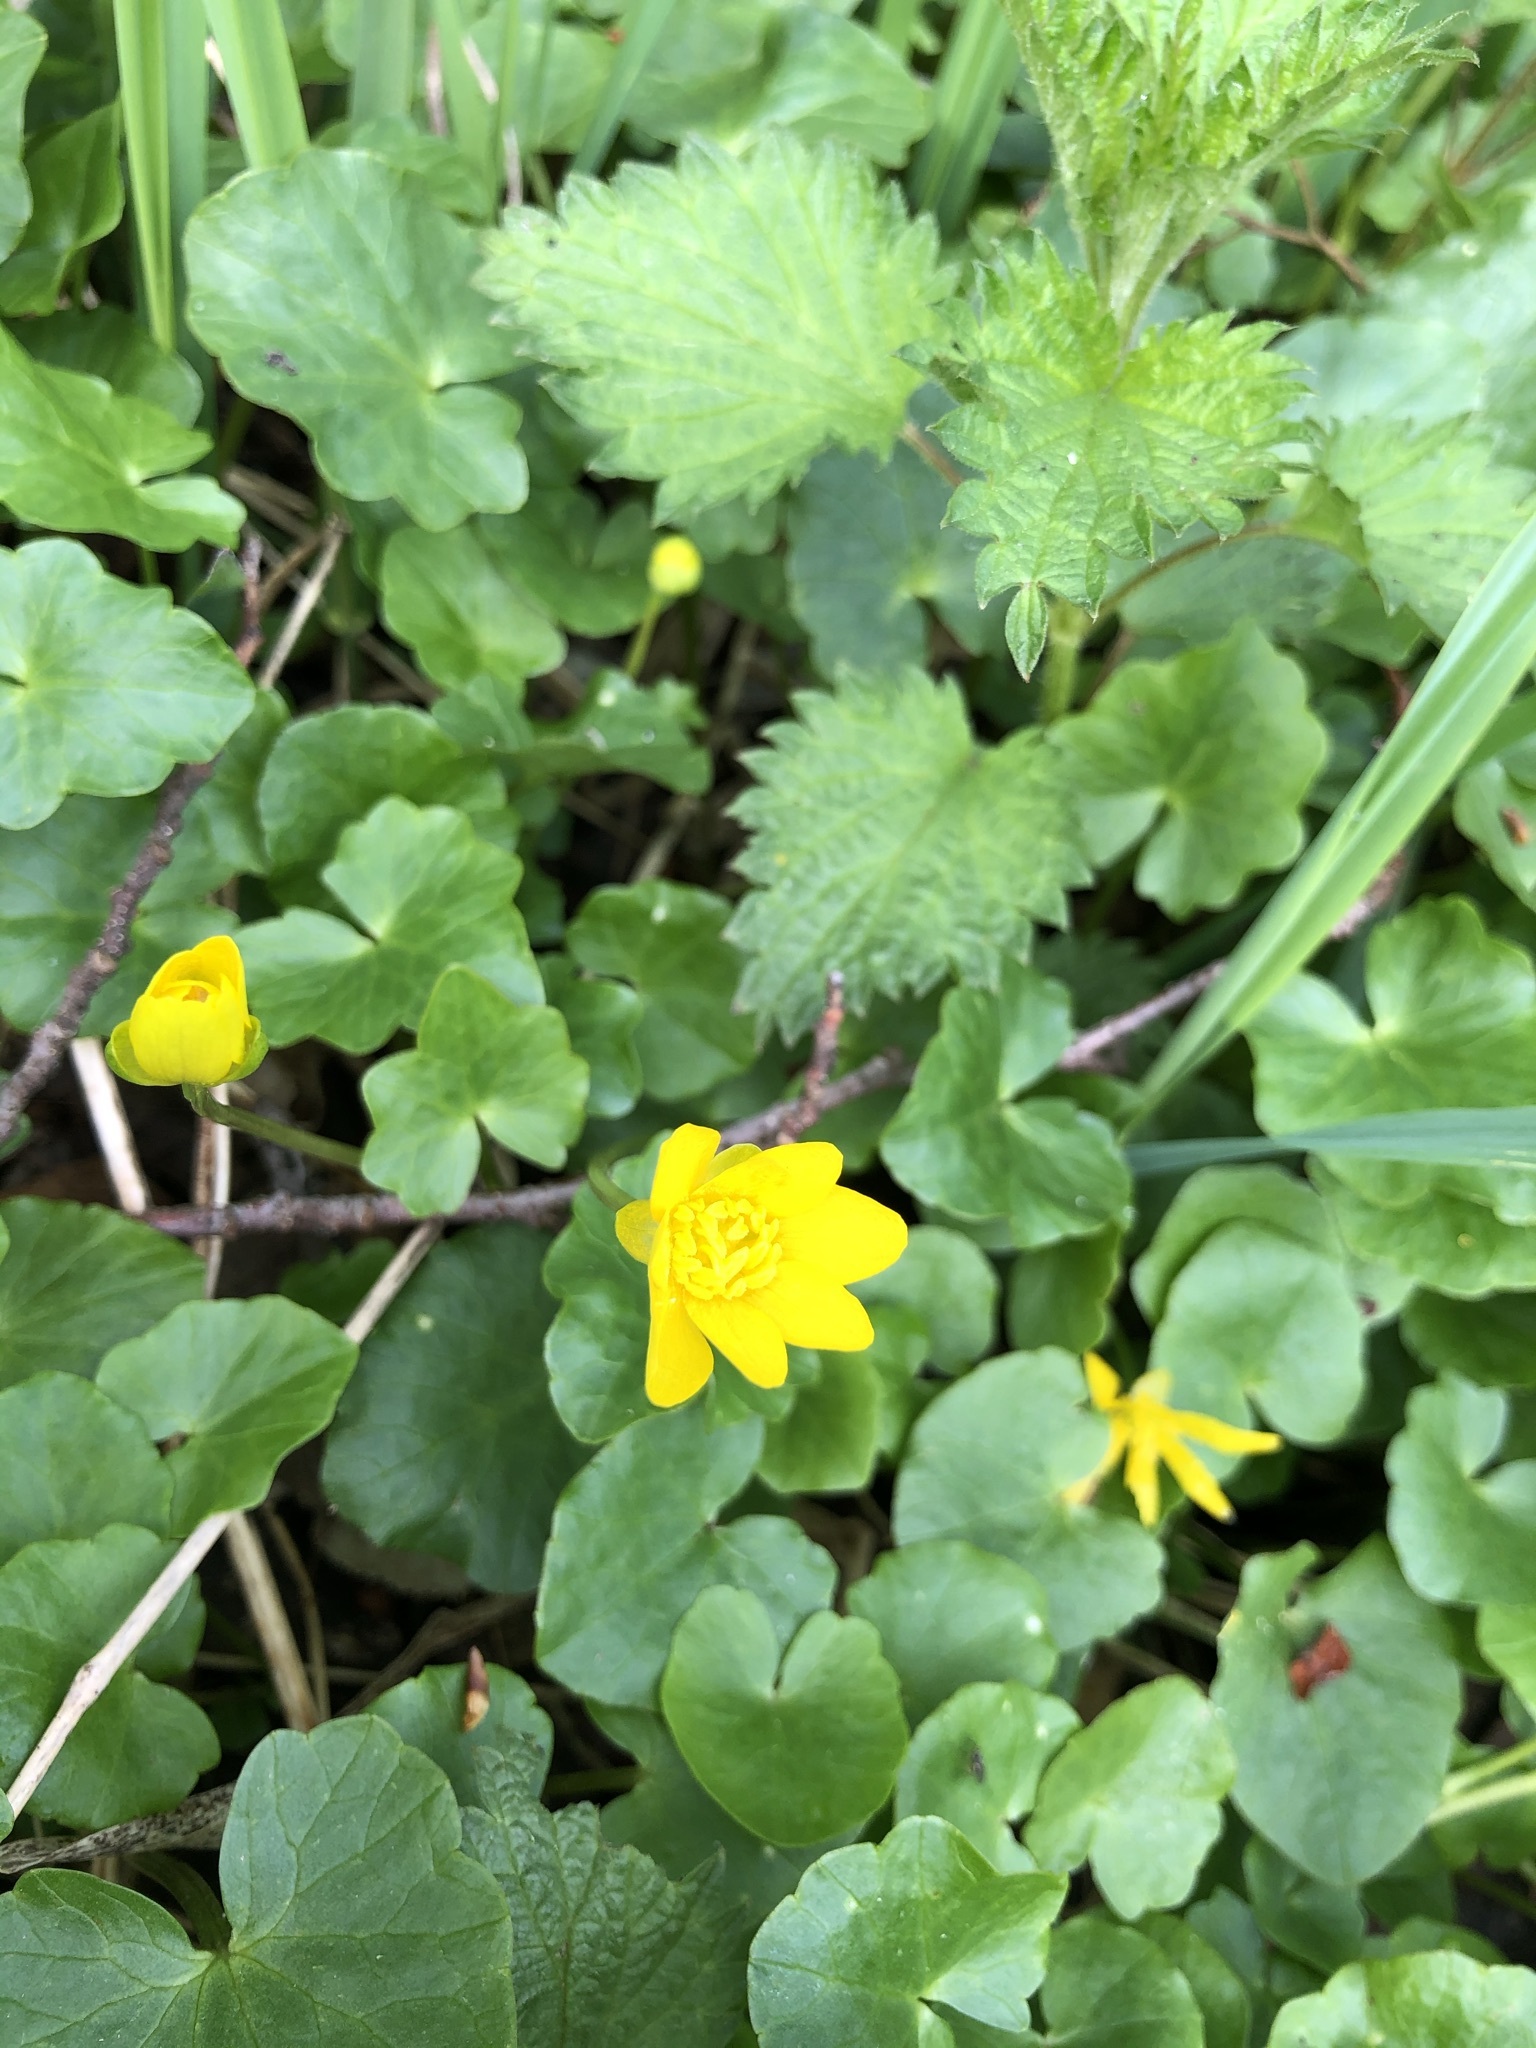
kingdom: Plantae
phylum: Tracheophyta
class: Magnoliopsida
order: Ranunculales
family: Ranunculaceae
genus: Ficaria
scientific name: Ficaria verna
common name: Lesser celandine
